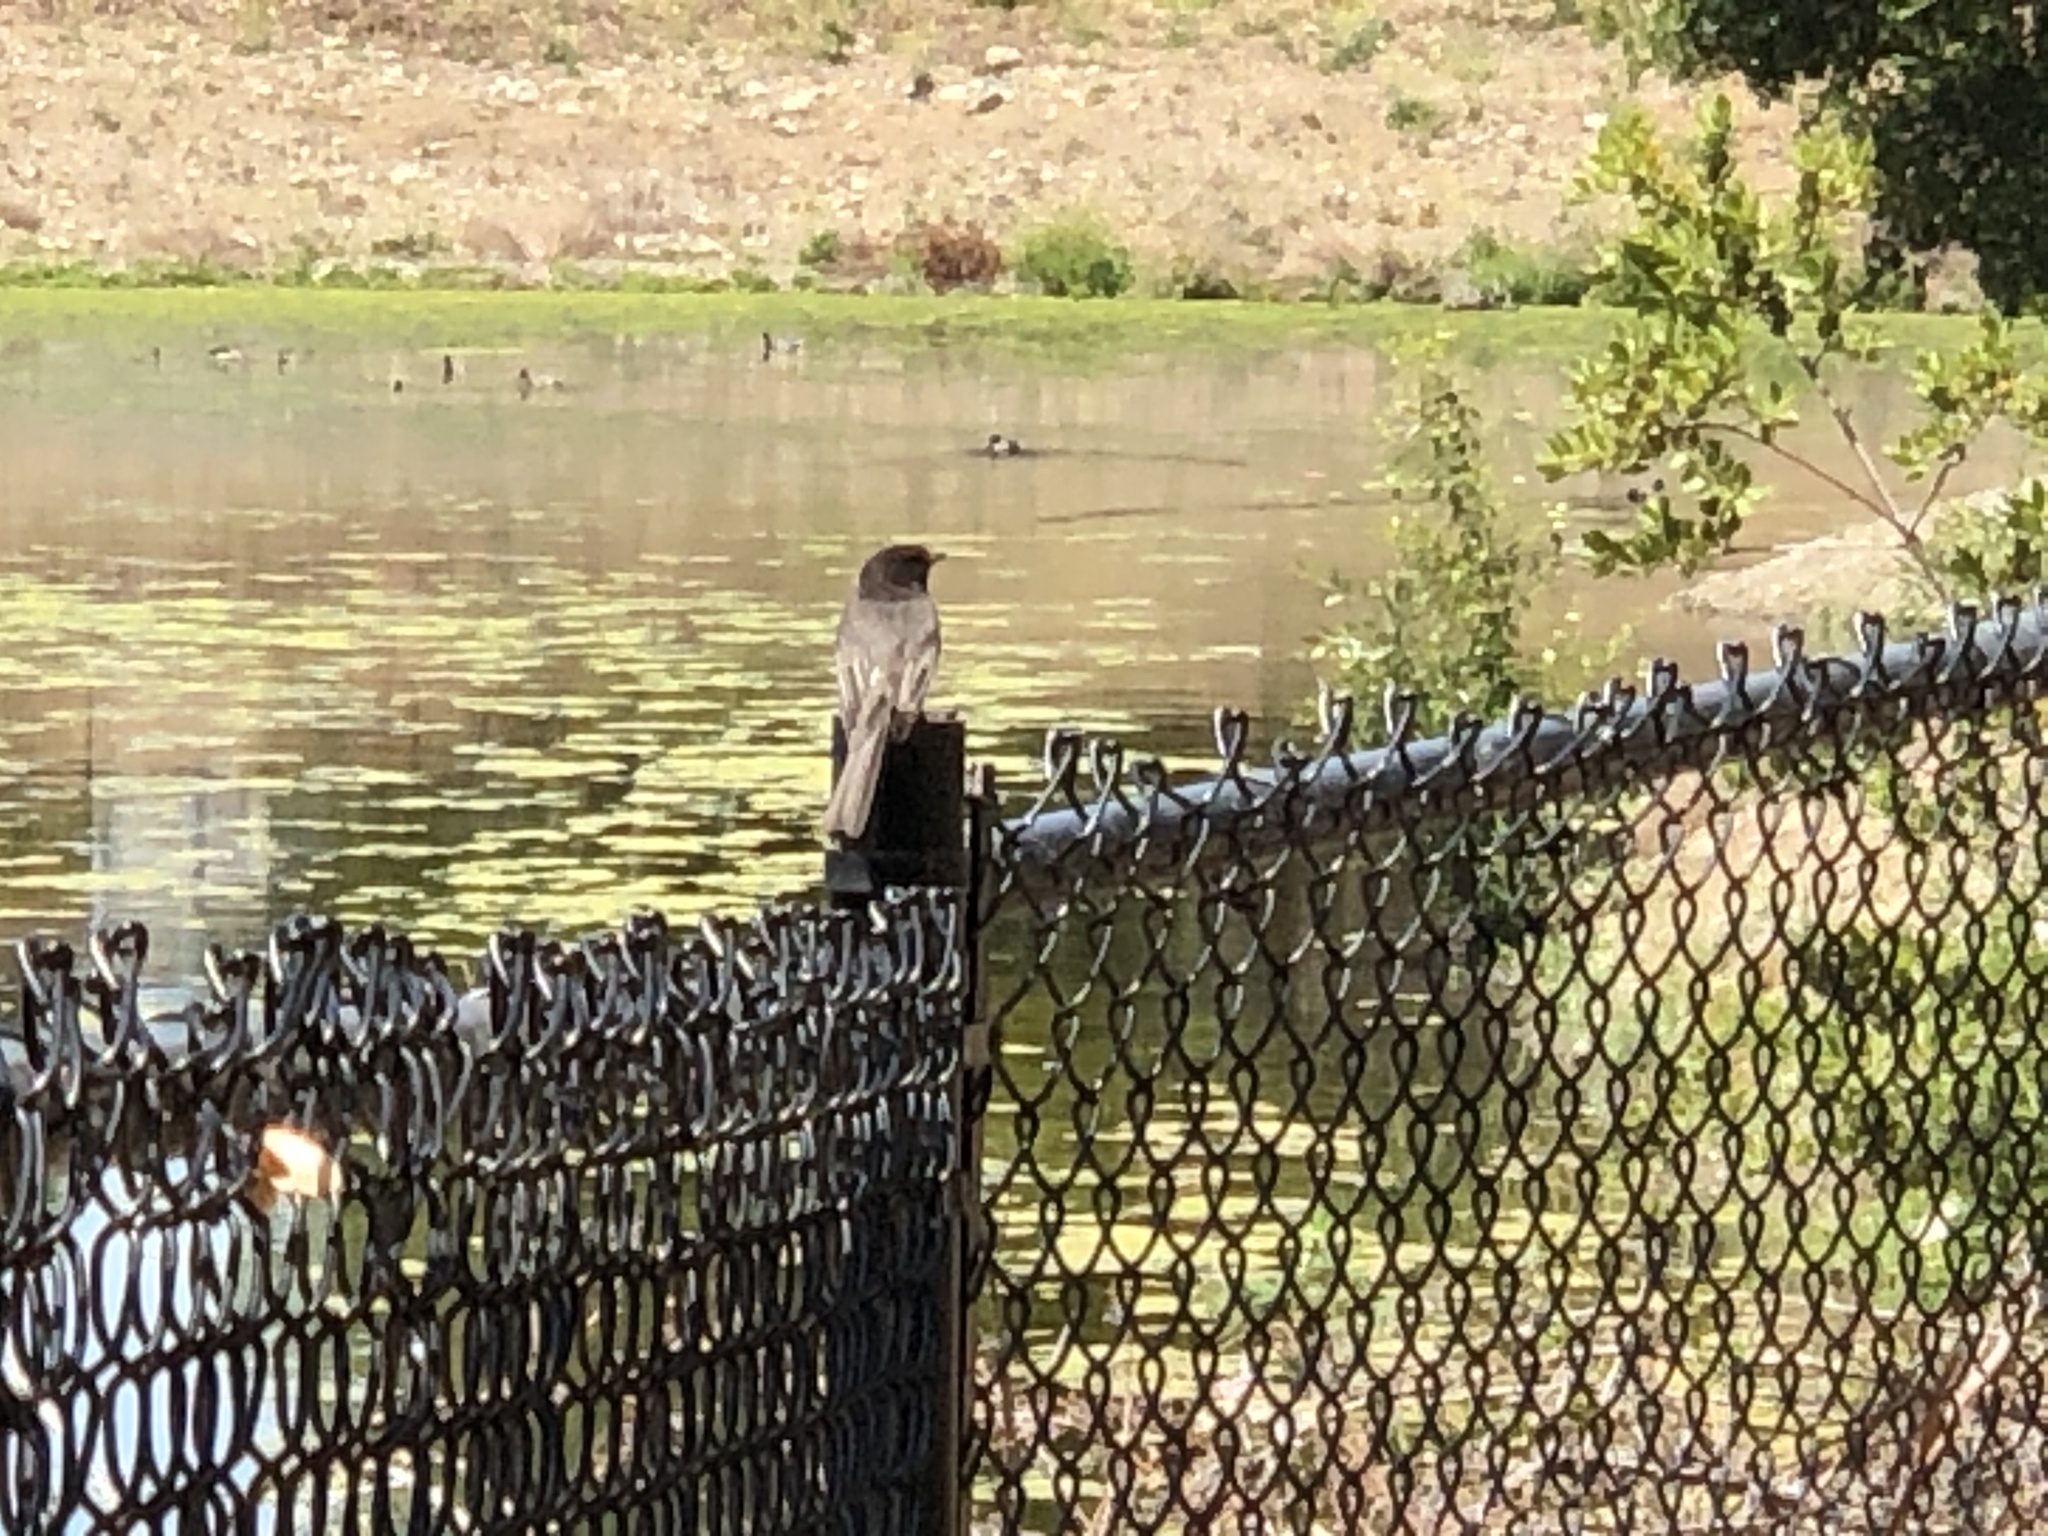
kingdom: Animalia
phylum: Chordata
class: Aves
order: Passeriformes
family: Tyrannidae
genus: Sayornis
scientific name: Sayornis nigricans
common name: Black phoebe
